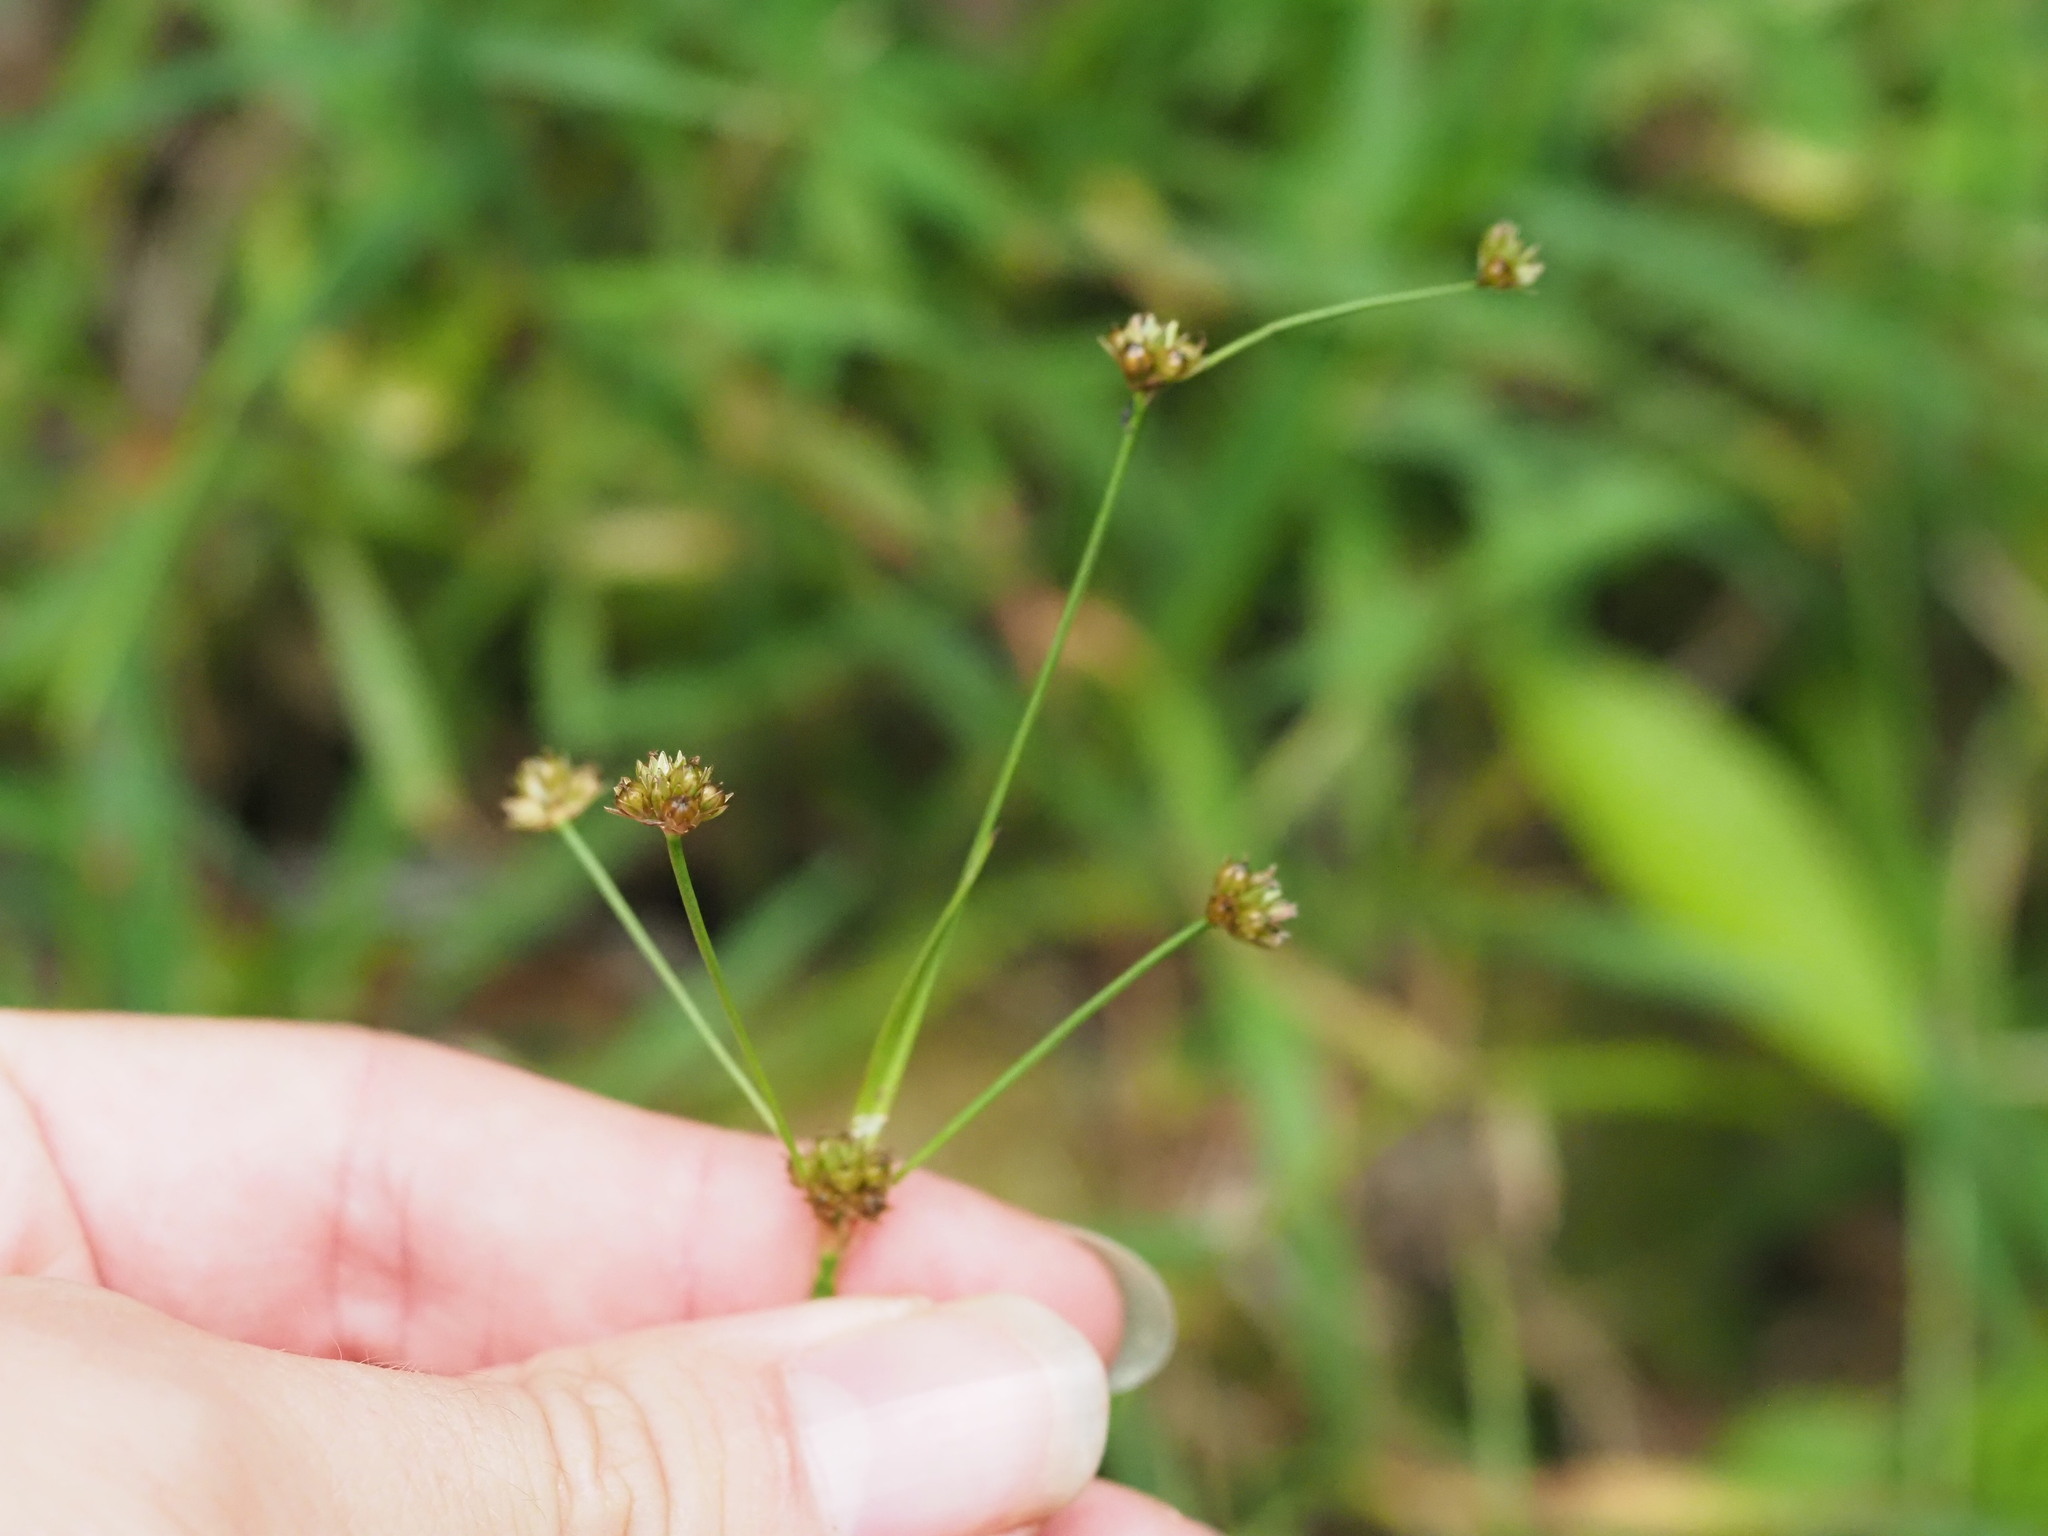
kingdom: Plantae
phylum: Tracheophyta
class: Liliopsida
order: Poales
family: Juncaceae
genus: Juncus
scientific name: Juncus planifolius
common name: Broadleaf rush
